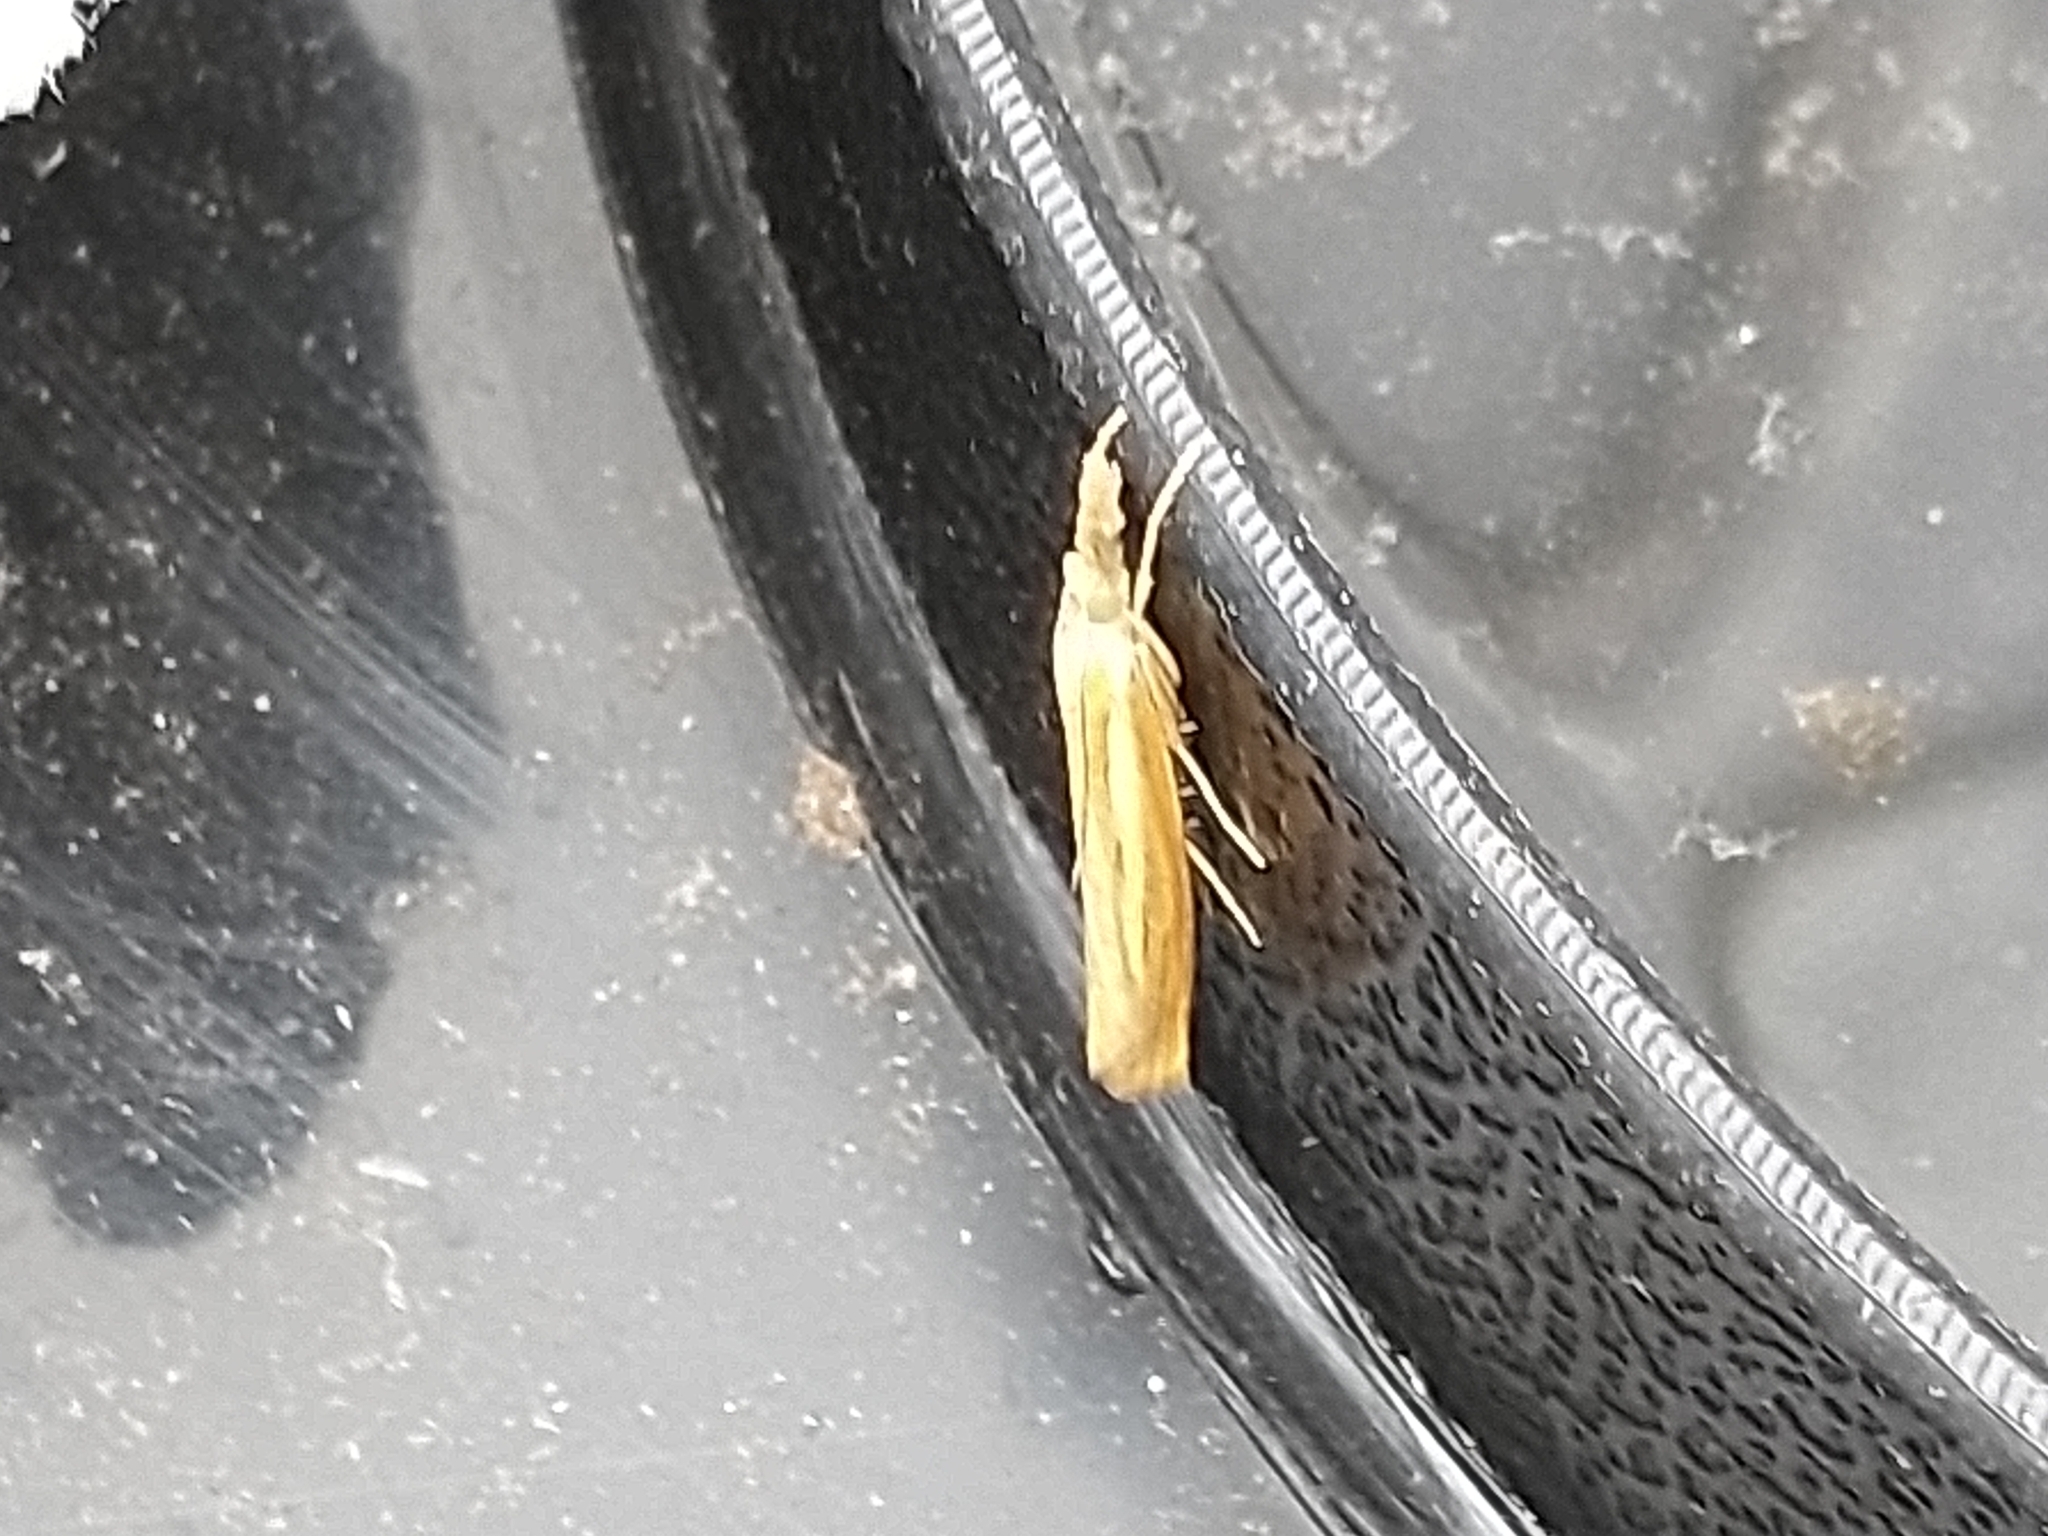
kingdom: Animalia
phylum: Arthropoda
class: Insecta
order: Lepidoptera
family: Crambidae
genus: Agriphila
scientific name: Agriphila tristellus
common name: Common grass-veneer
